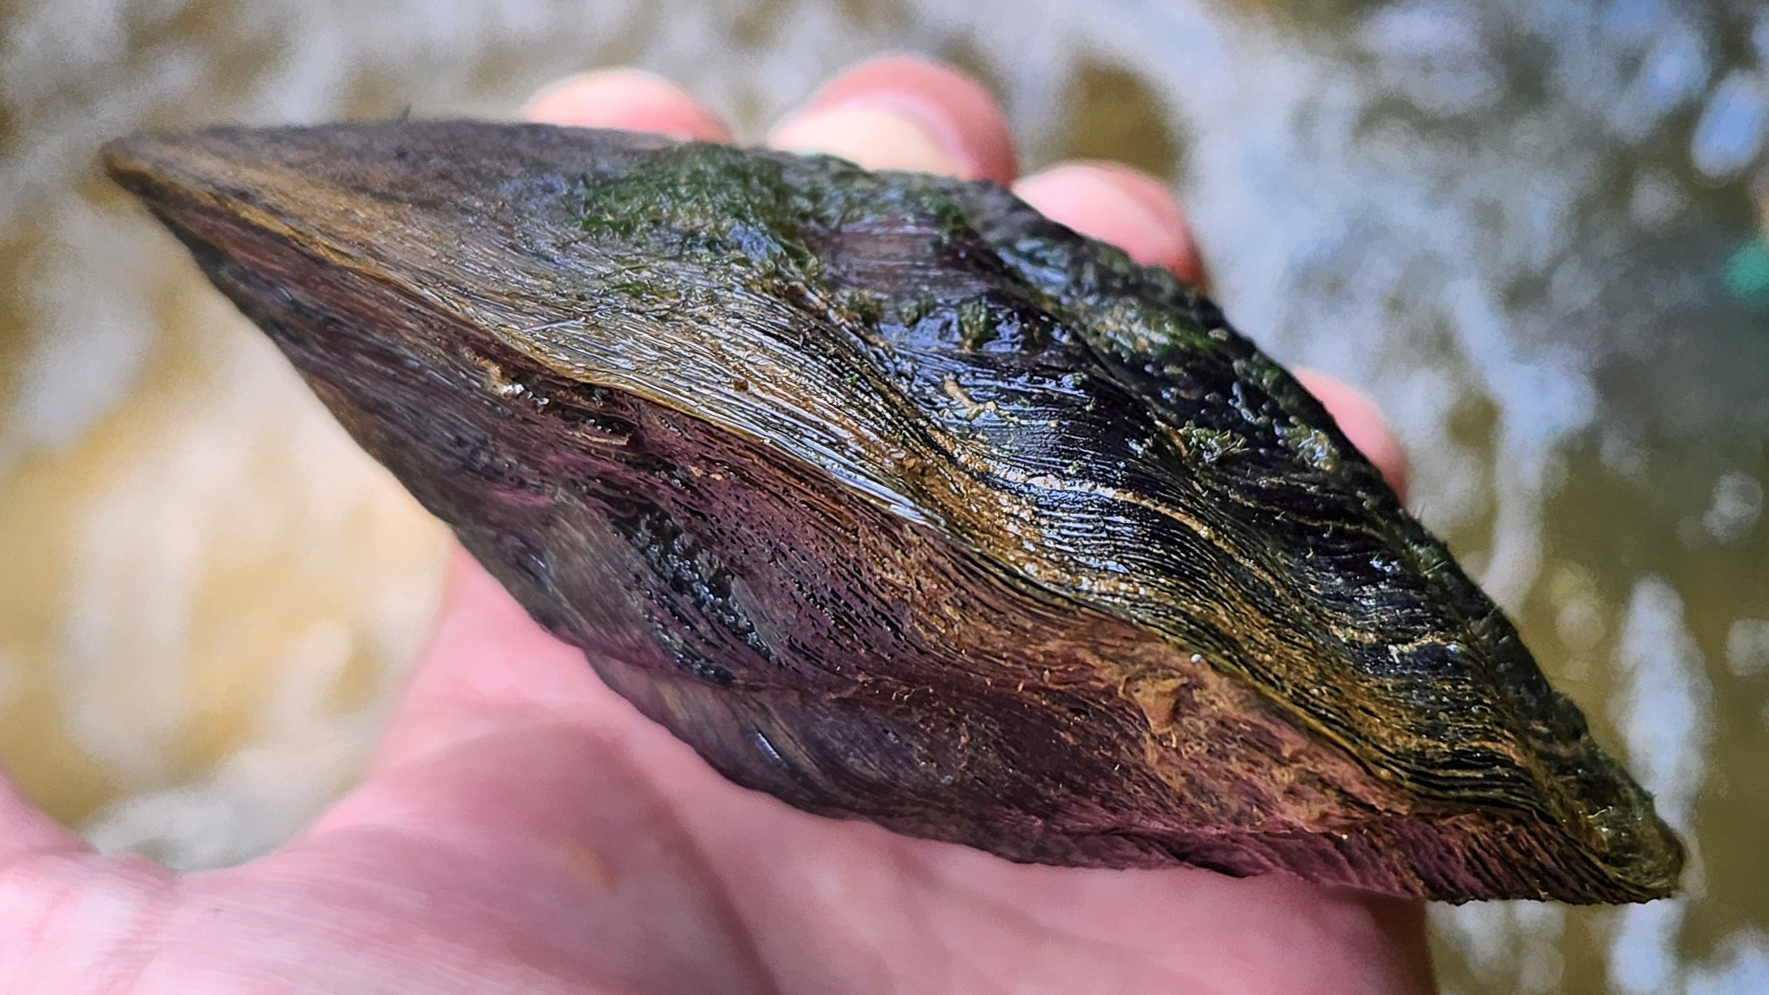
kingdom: Animalia
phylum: Mollusca
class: Bivalvia
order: Unionida
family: Unionidae
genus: Megalonaias
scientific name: Megalonaias nervosa
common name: Washboard
